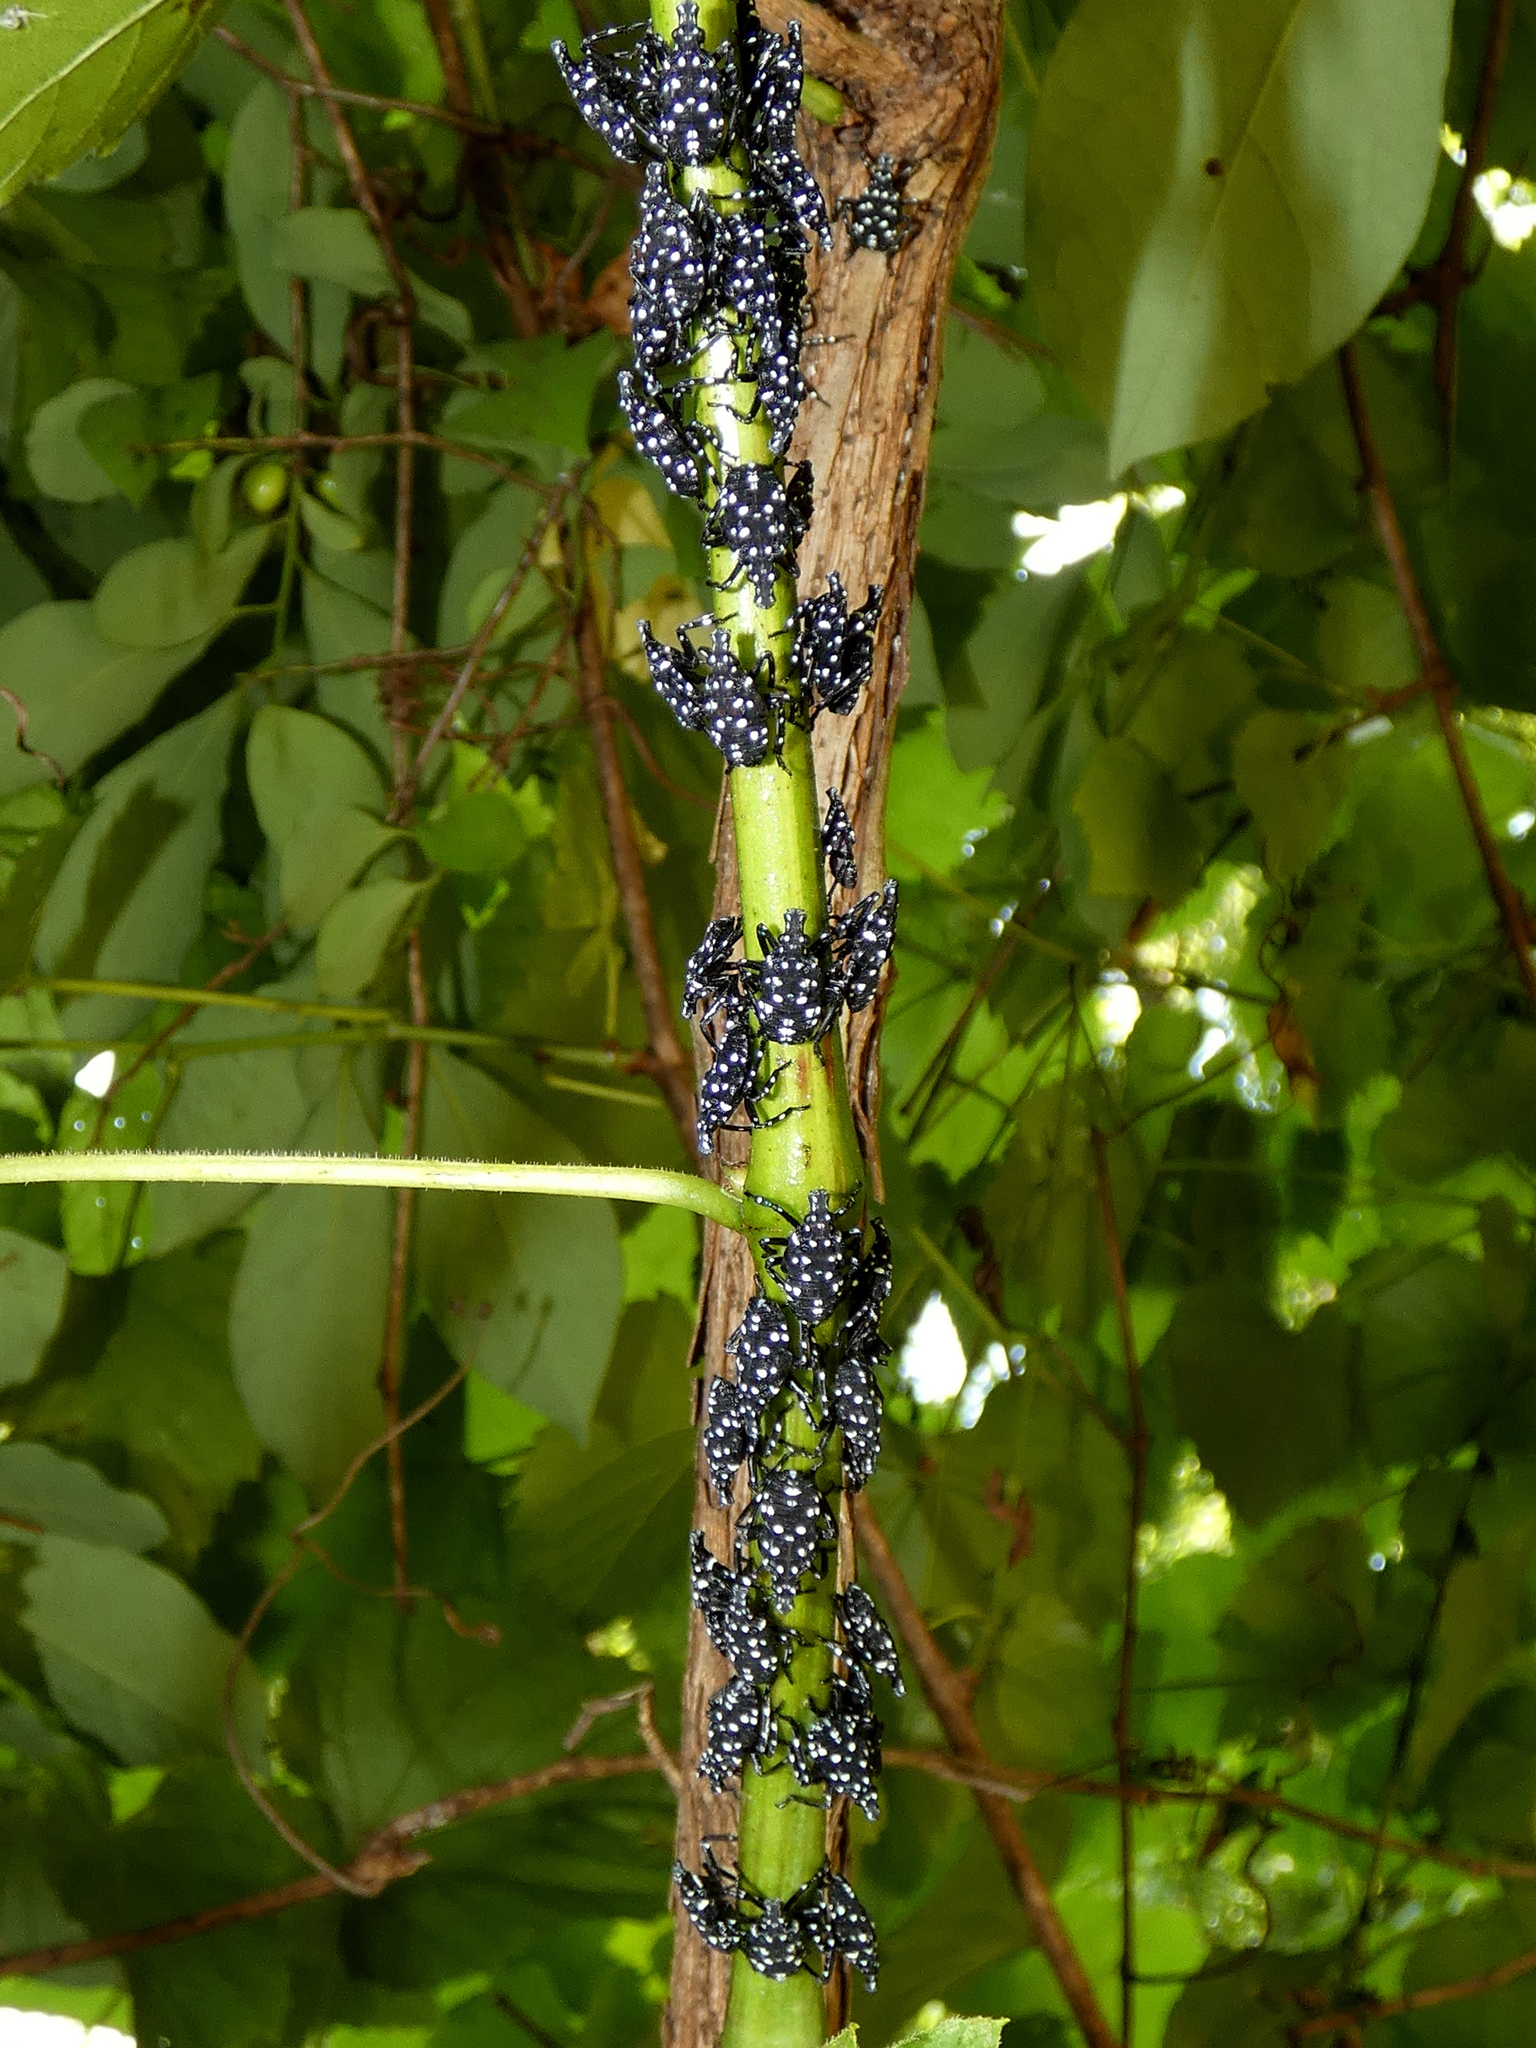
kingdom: Animalia
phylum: Arthropoda
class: Insecta
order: Hemiptera
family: Fulgoridae
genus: Lycorma
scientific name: Lycorma delicatula
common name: Spotted lanternfly
